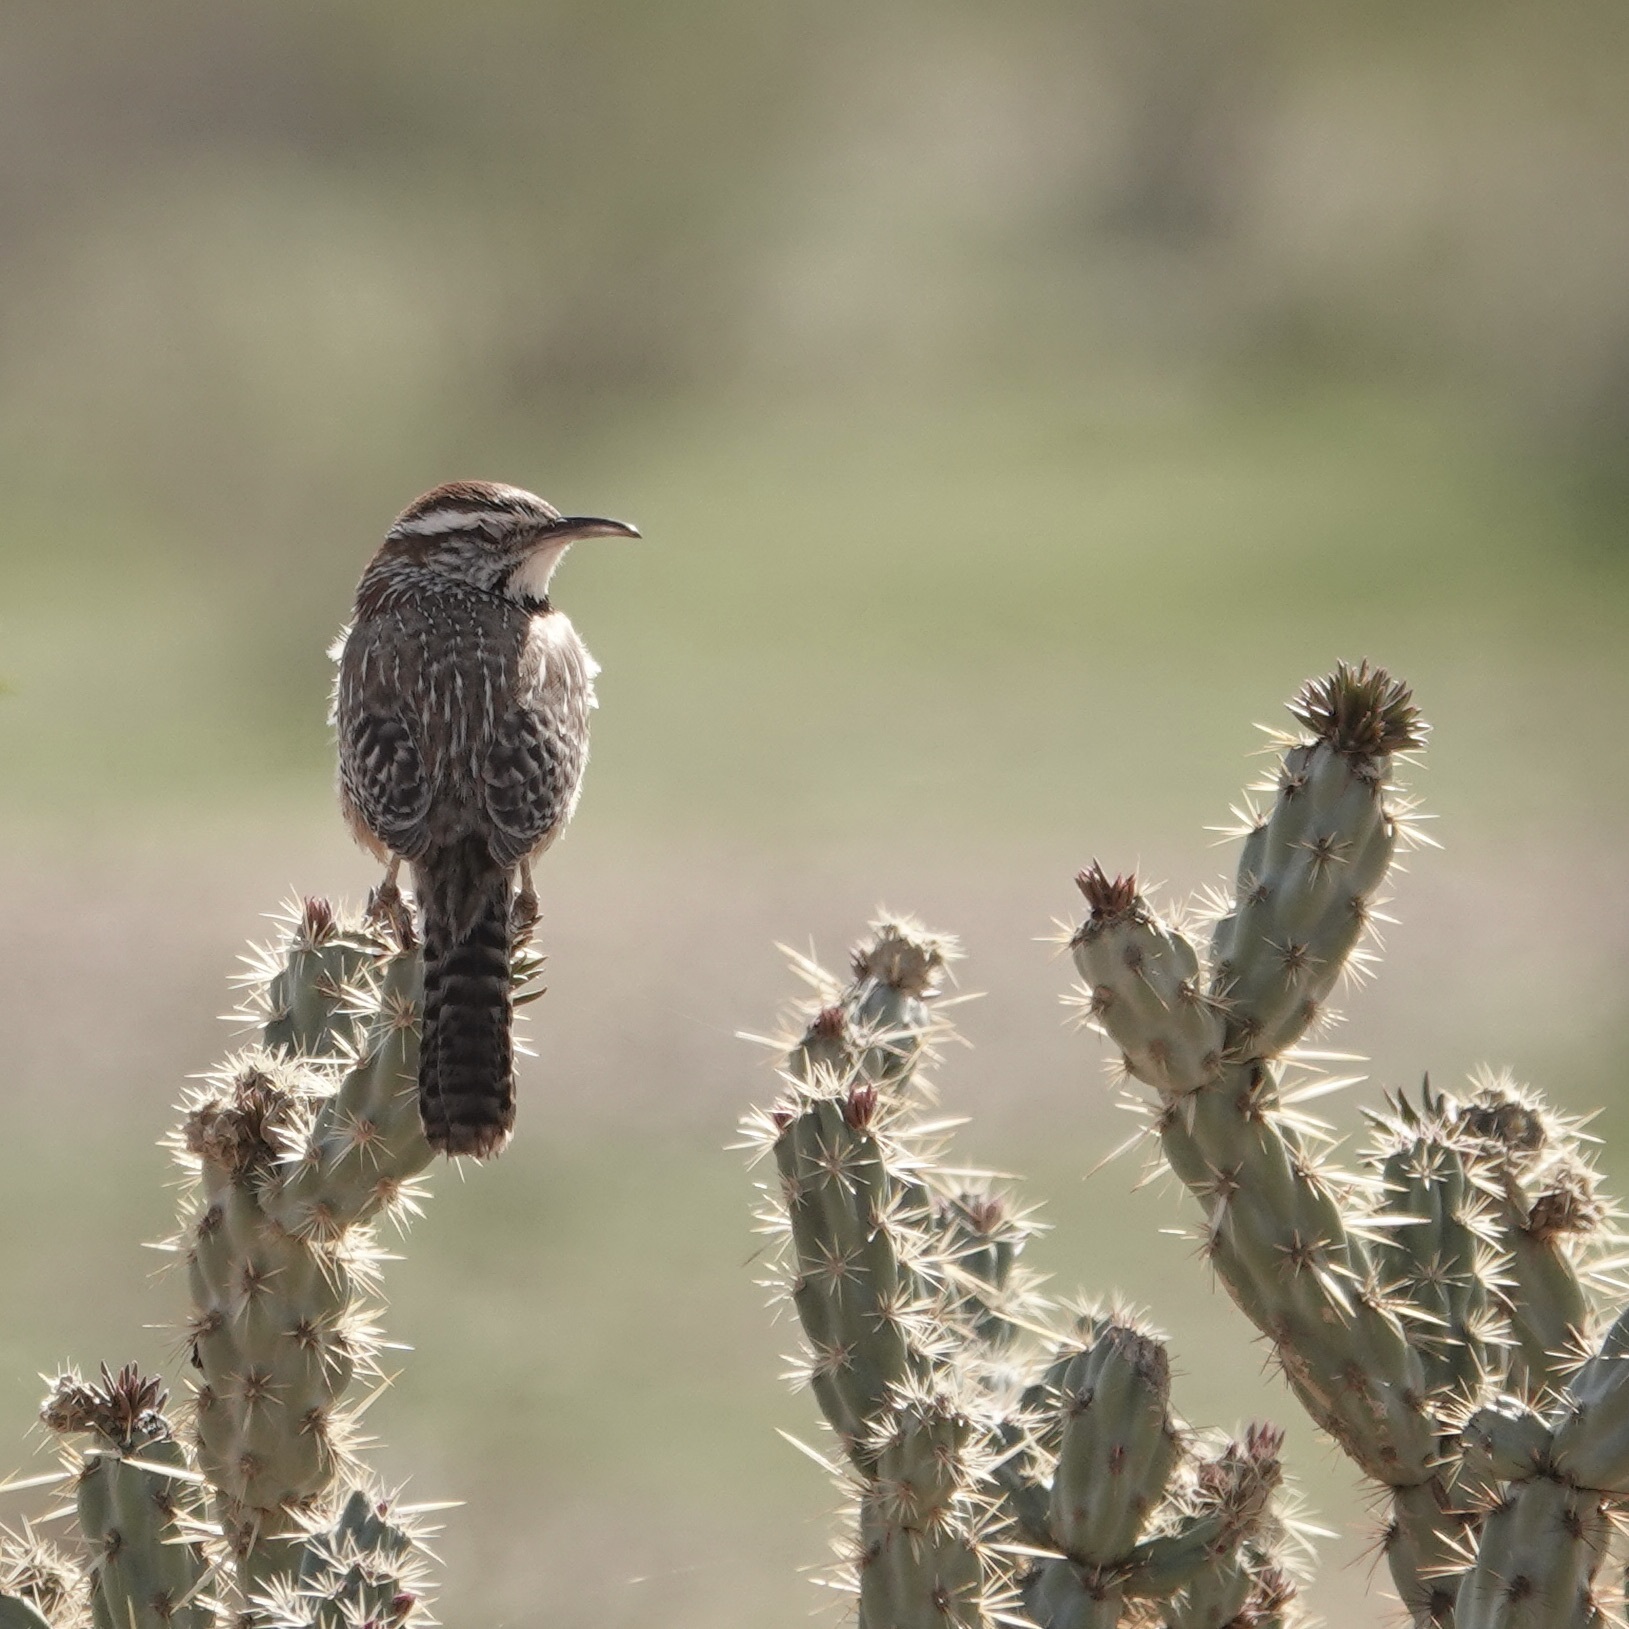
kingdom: Animalia
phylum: Chordata
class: Aves
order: Passeriformes
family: Troglodytidae
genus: Campylorhynchus
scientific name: Campylorhynchus brunneicapillus
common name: Cactus wren
